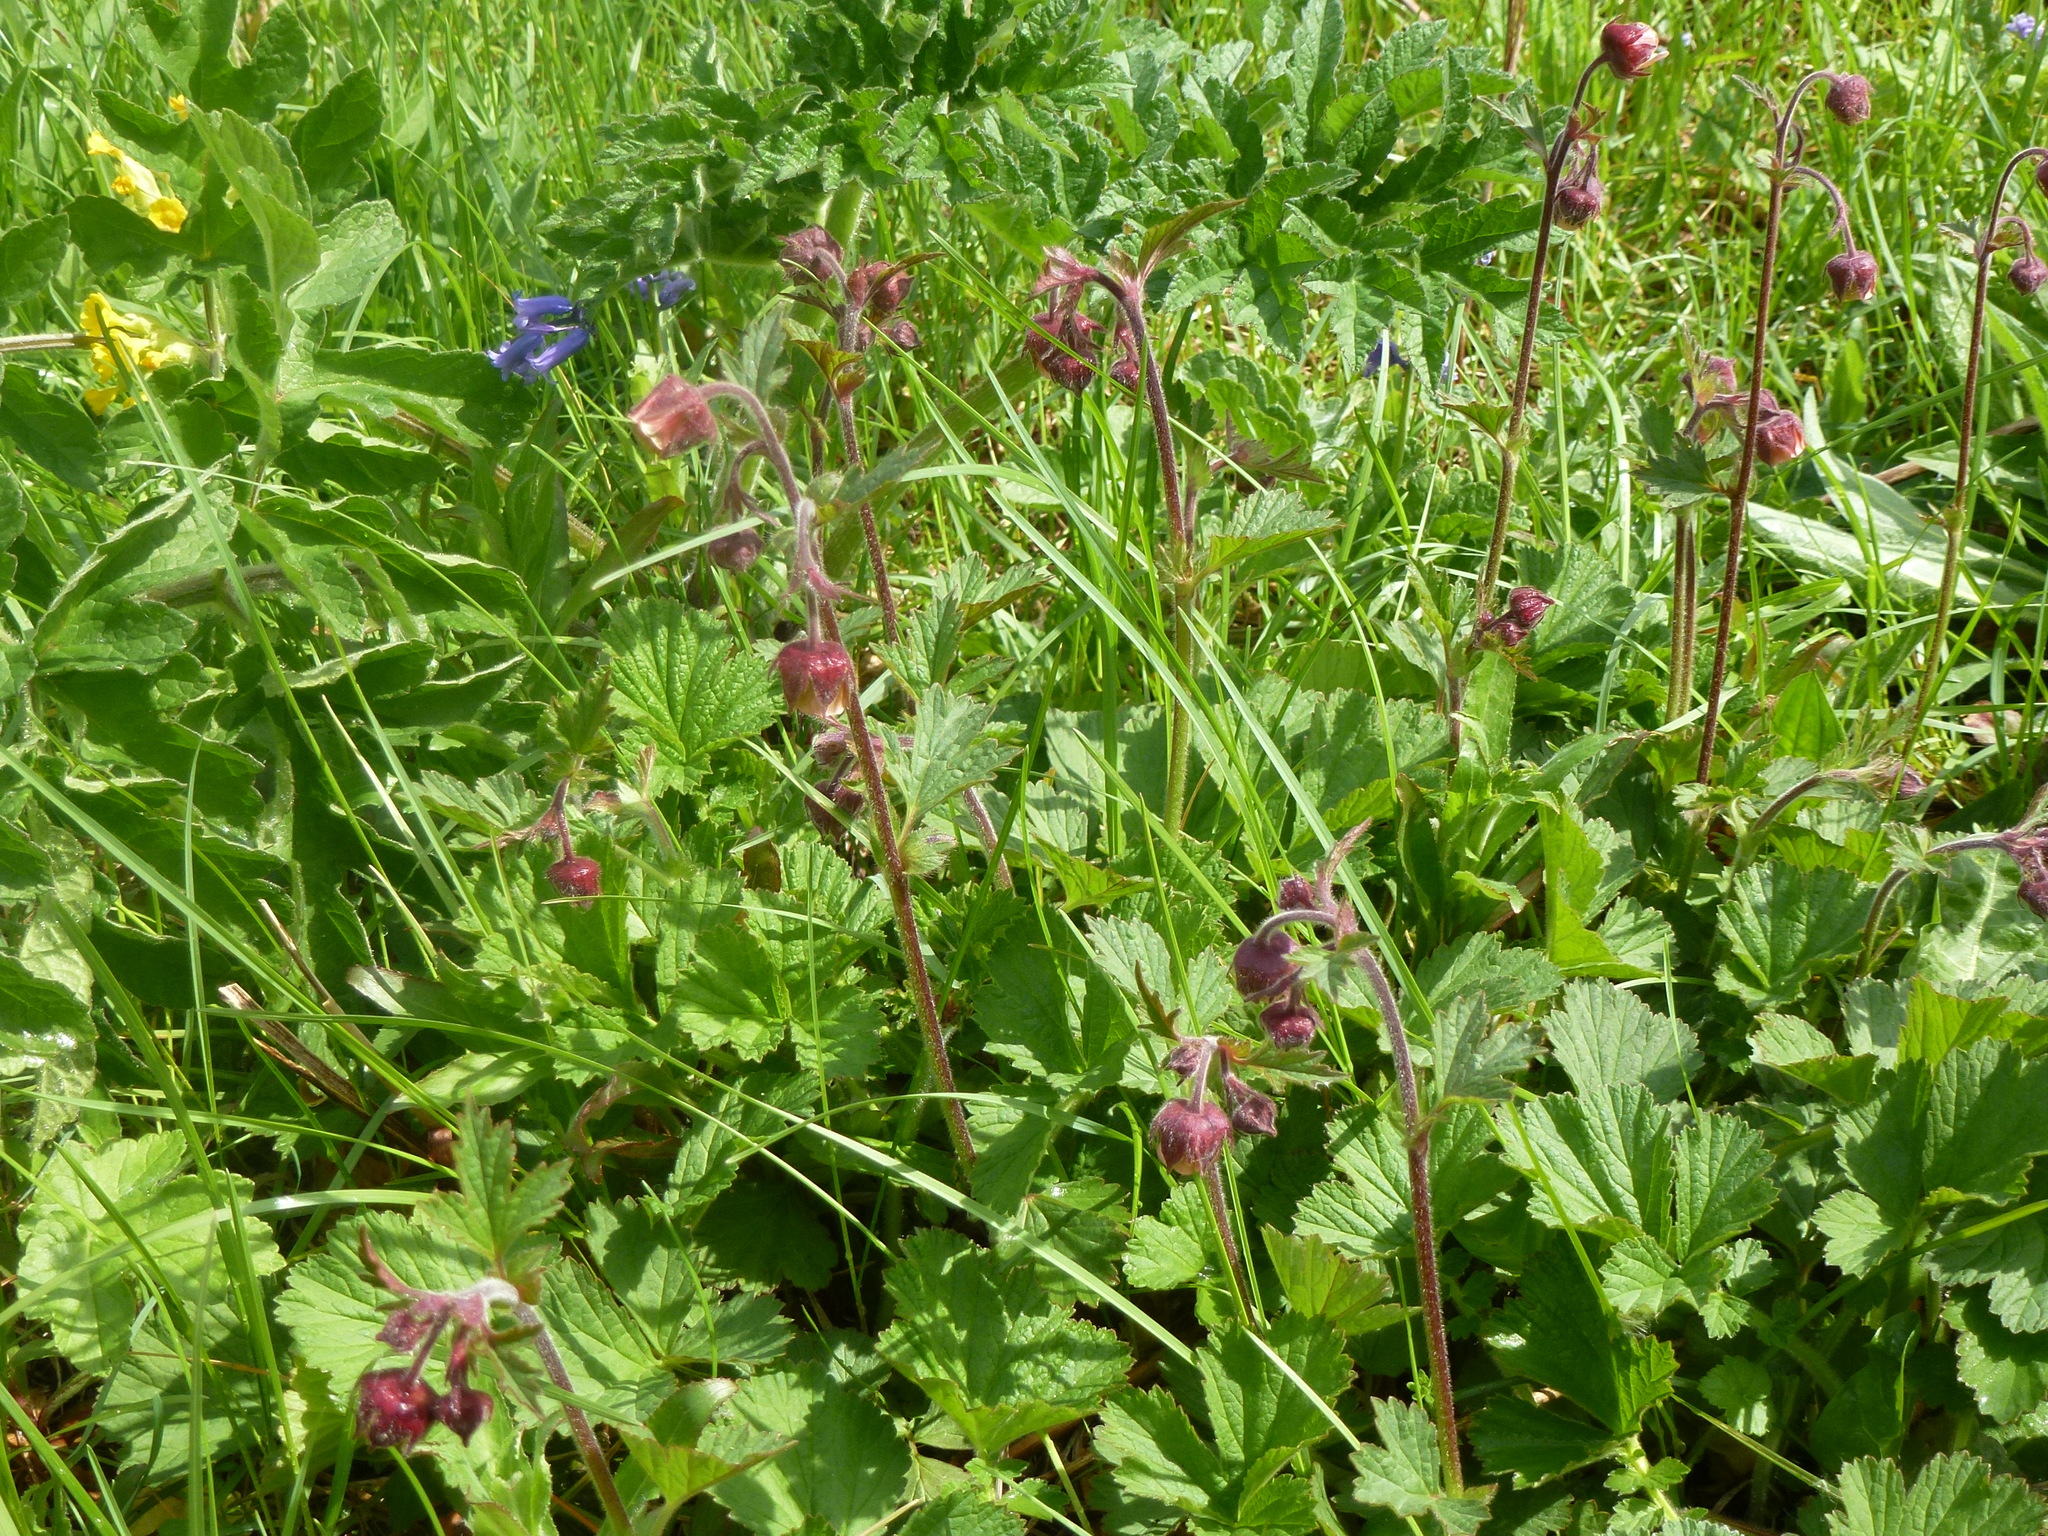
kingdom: Plantae
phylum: Tracheophyta
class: Magnoliopsida
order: Rosales
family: Rosaceae
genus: Geum
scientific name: Geum rivale
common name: Water avens
